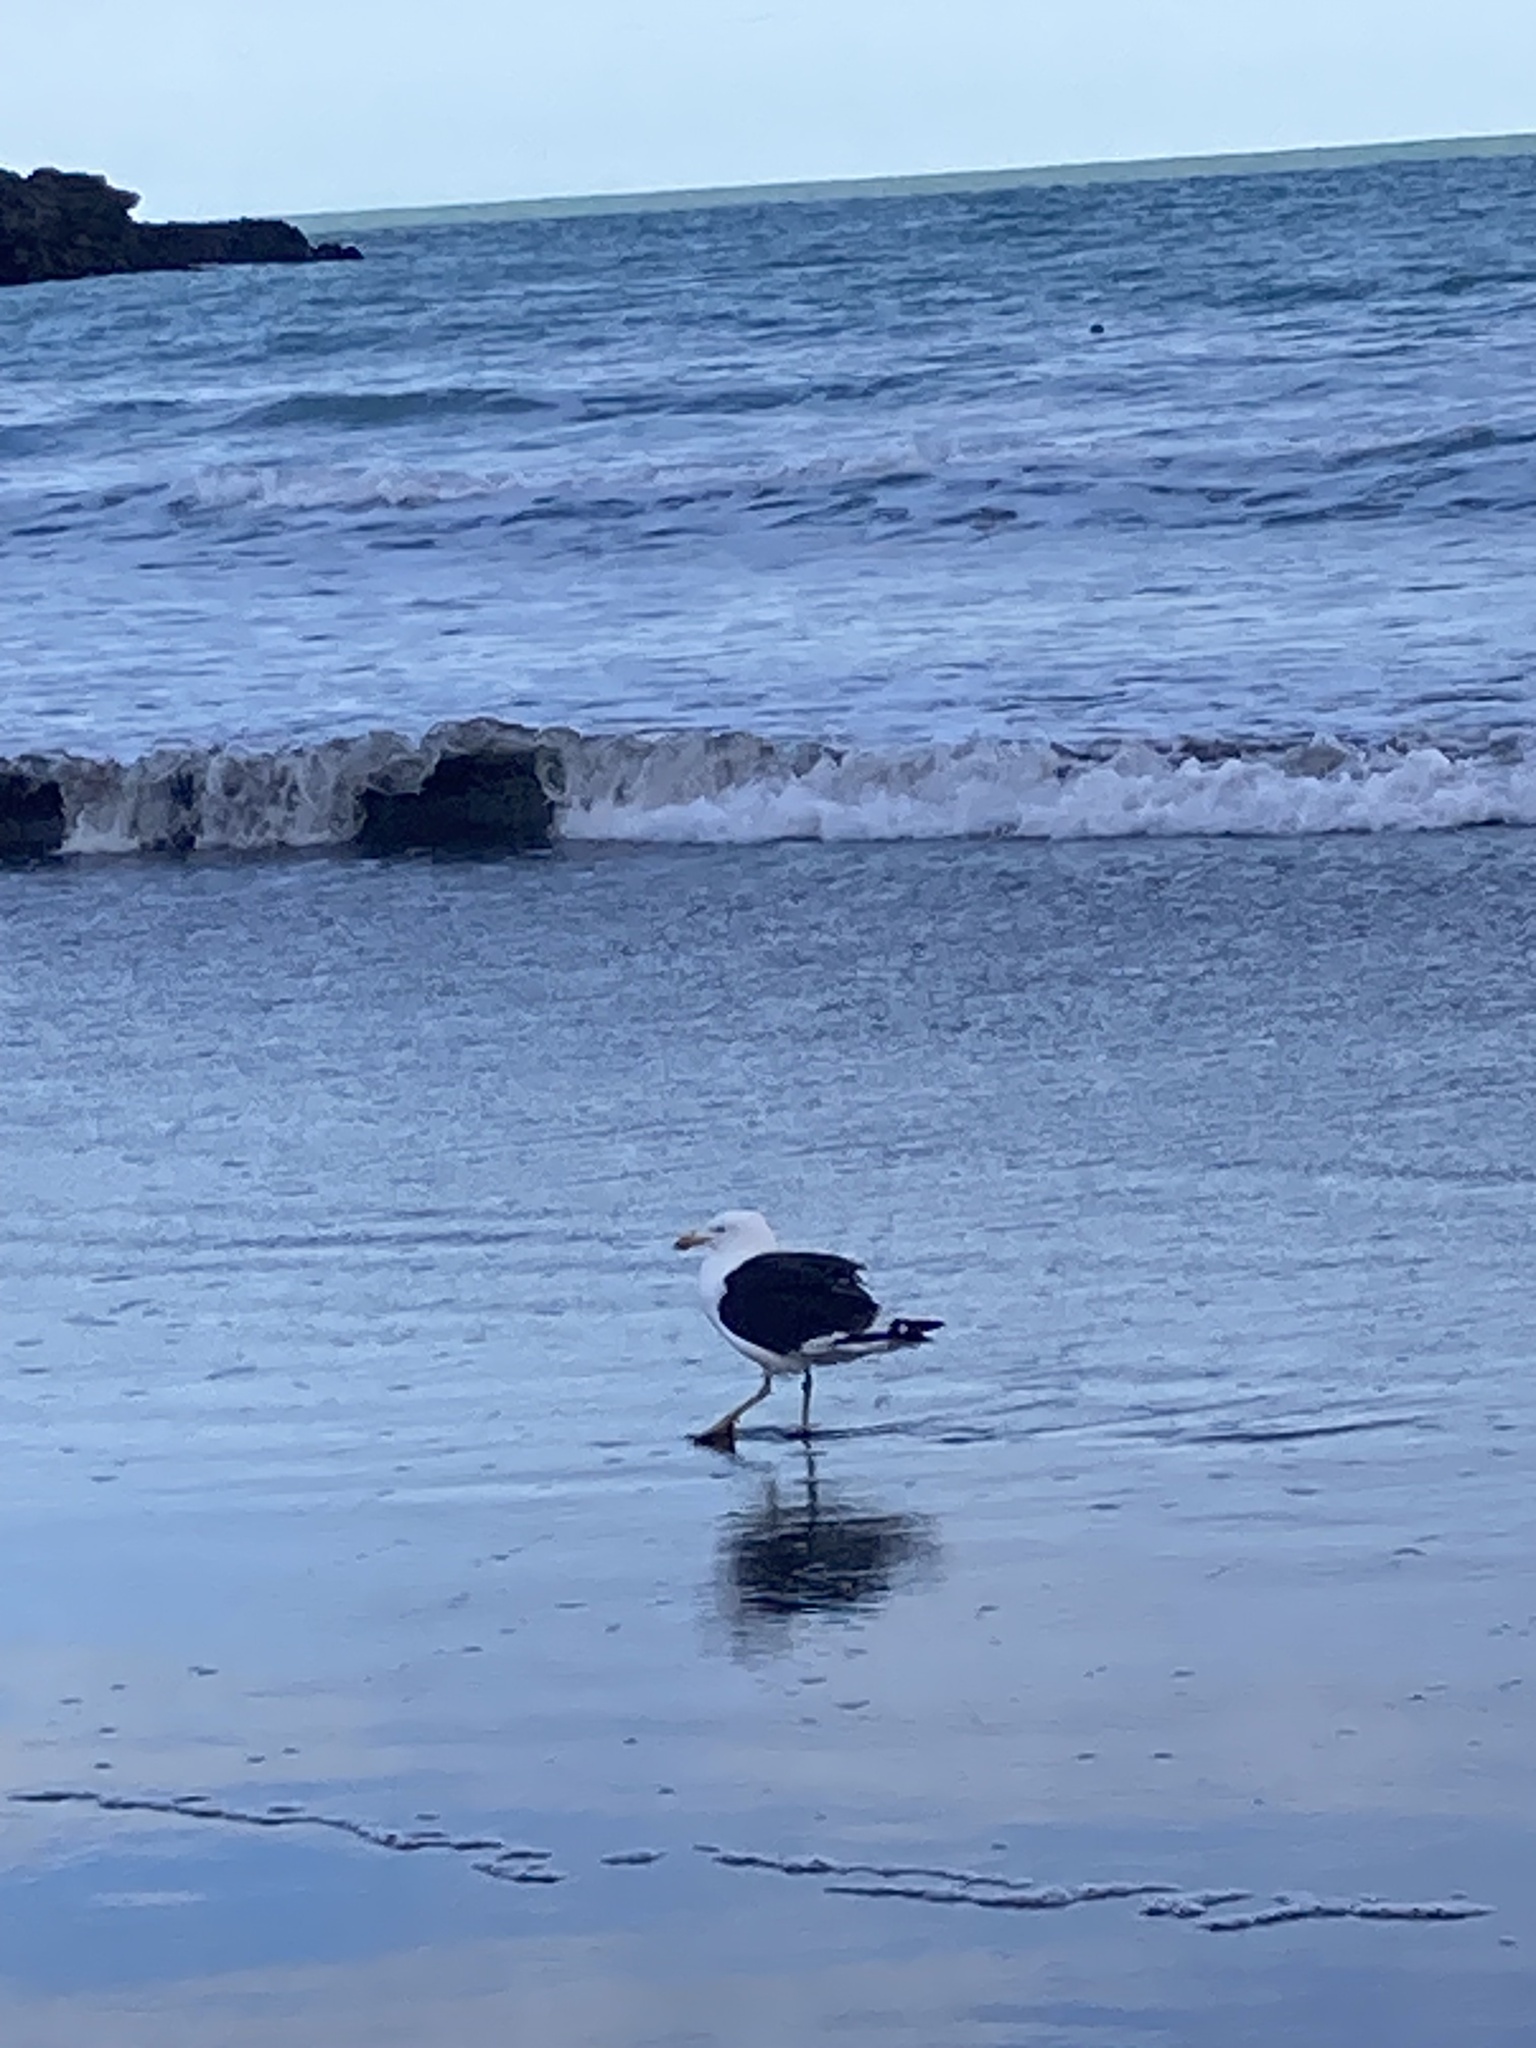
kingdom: Animalia
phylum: Chordata
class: Aves
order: Charadriiformes
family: Laridae
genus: Larus
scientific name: Larus dominicanus
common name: Kelp gull
